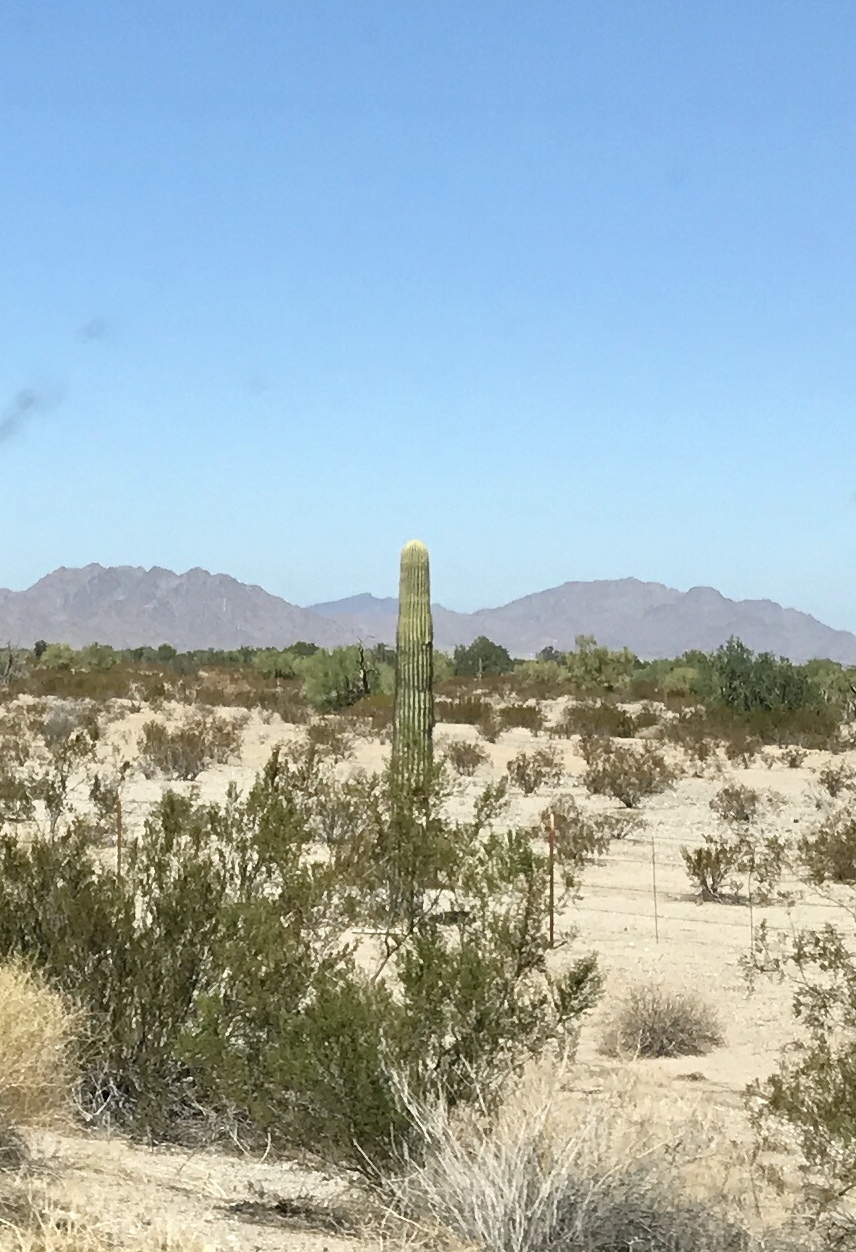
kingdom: Plantae
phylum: Tracheophyta
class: Magnoliopsida
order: Caryophyllales
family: Cactaceae
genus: Carnegiea
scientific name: Carnegiea gigantea
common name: Saguaro
